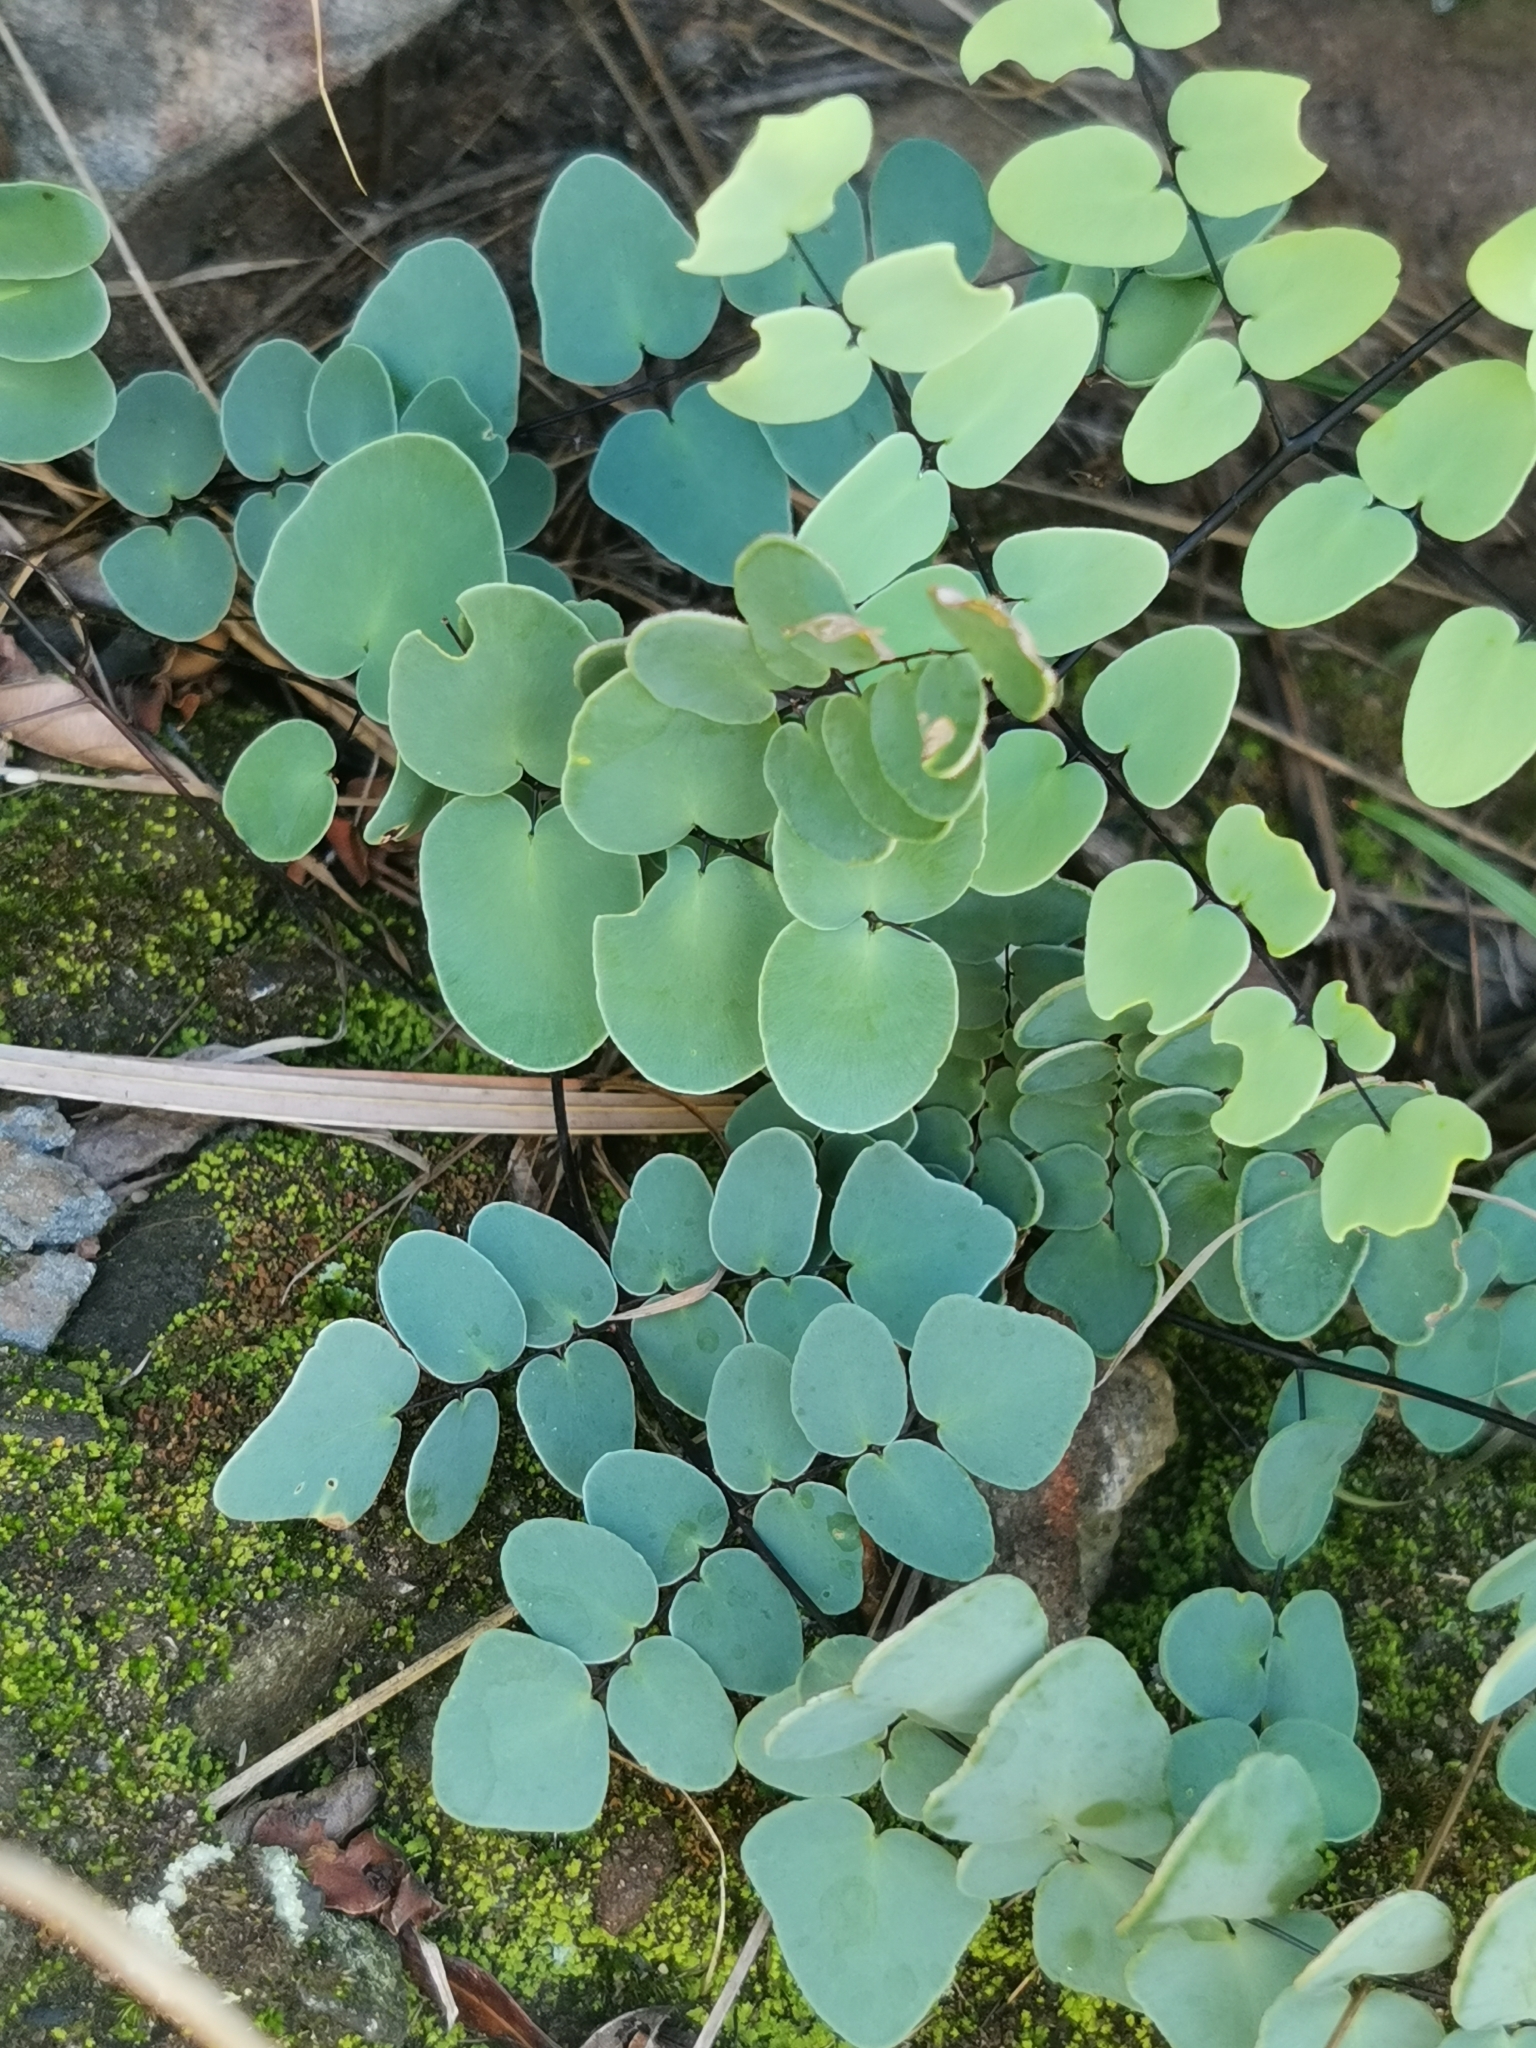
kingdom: Plantae
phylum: Tracheophyta
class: Polypodiopsida
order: Polypodiales
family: Pteridaceae
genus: Pellaea
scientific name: Pellaea calomelanos
